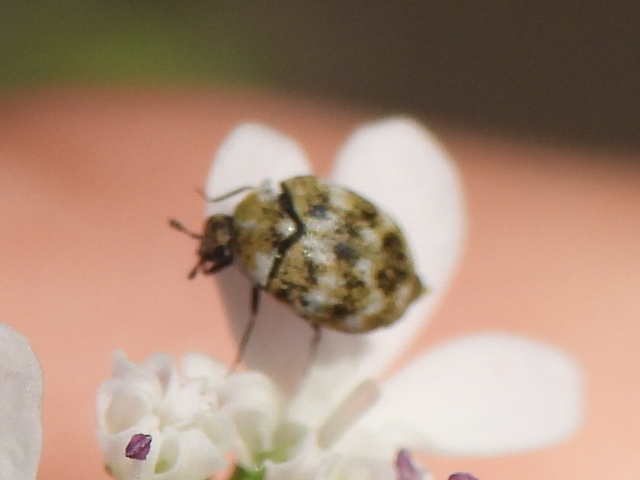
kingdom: Animalia
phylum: Arthropoda
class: Insecta
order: Coleoptera
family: Dermestidae
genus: Anthrenus
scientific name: Anthrenus verbasci
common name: Varied carpet beetle
